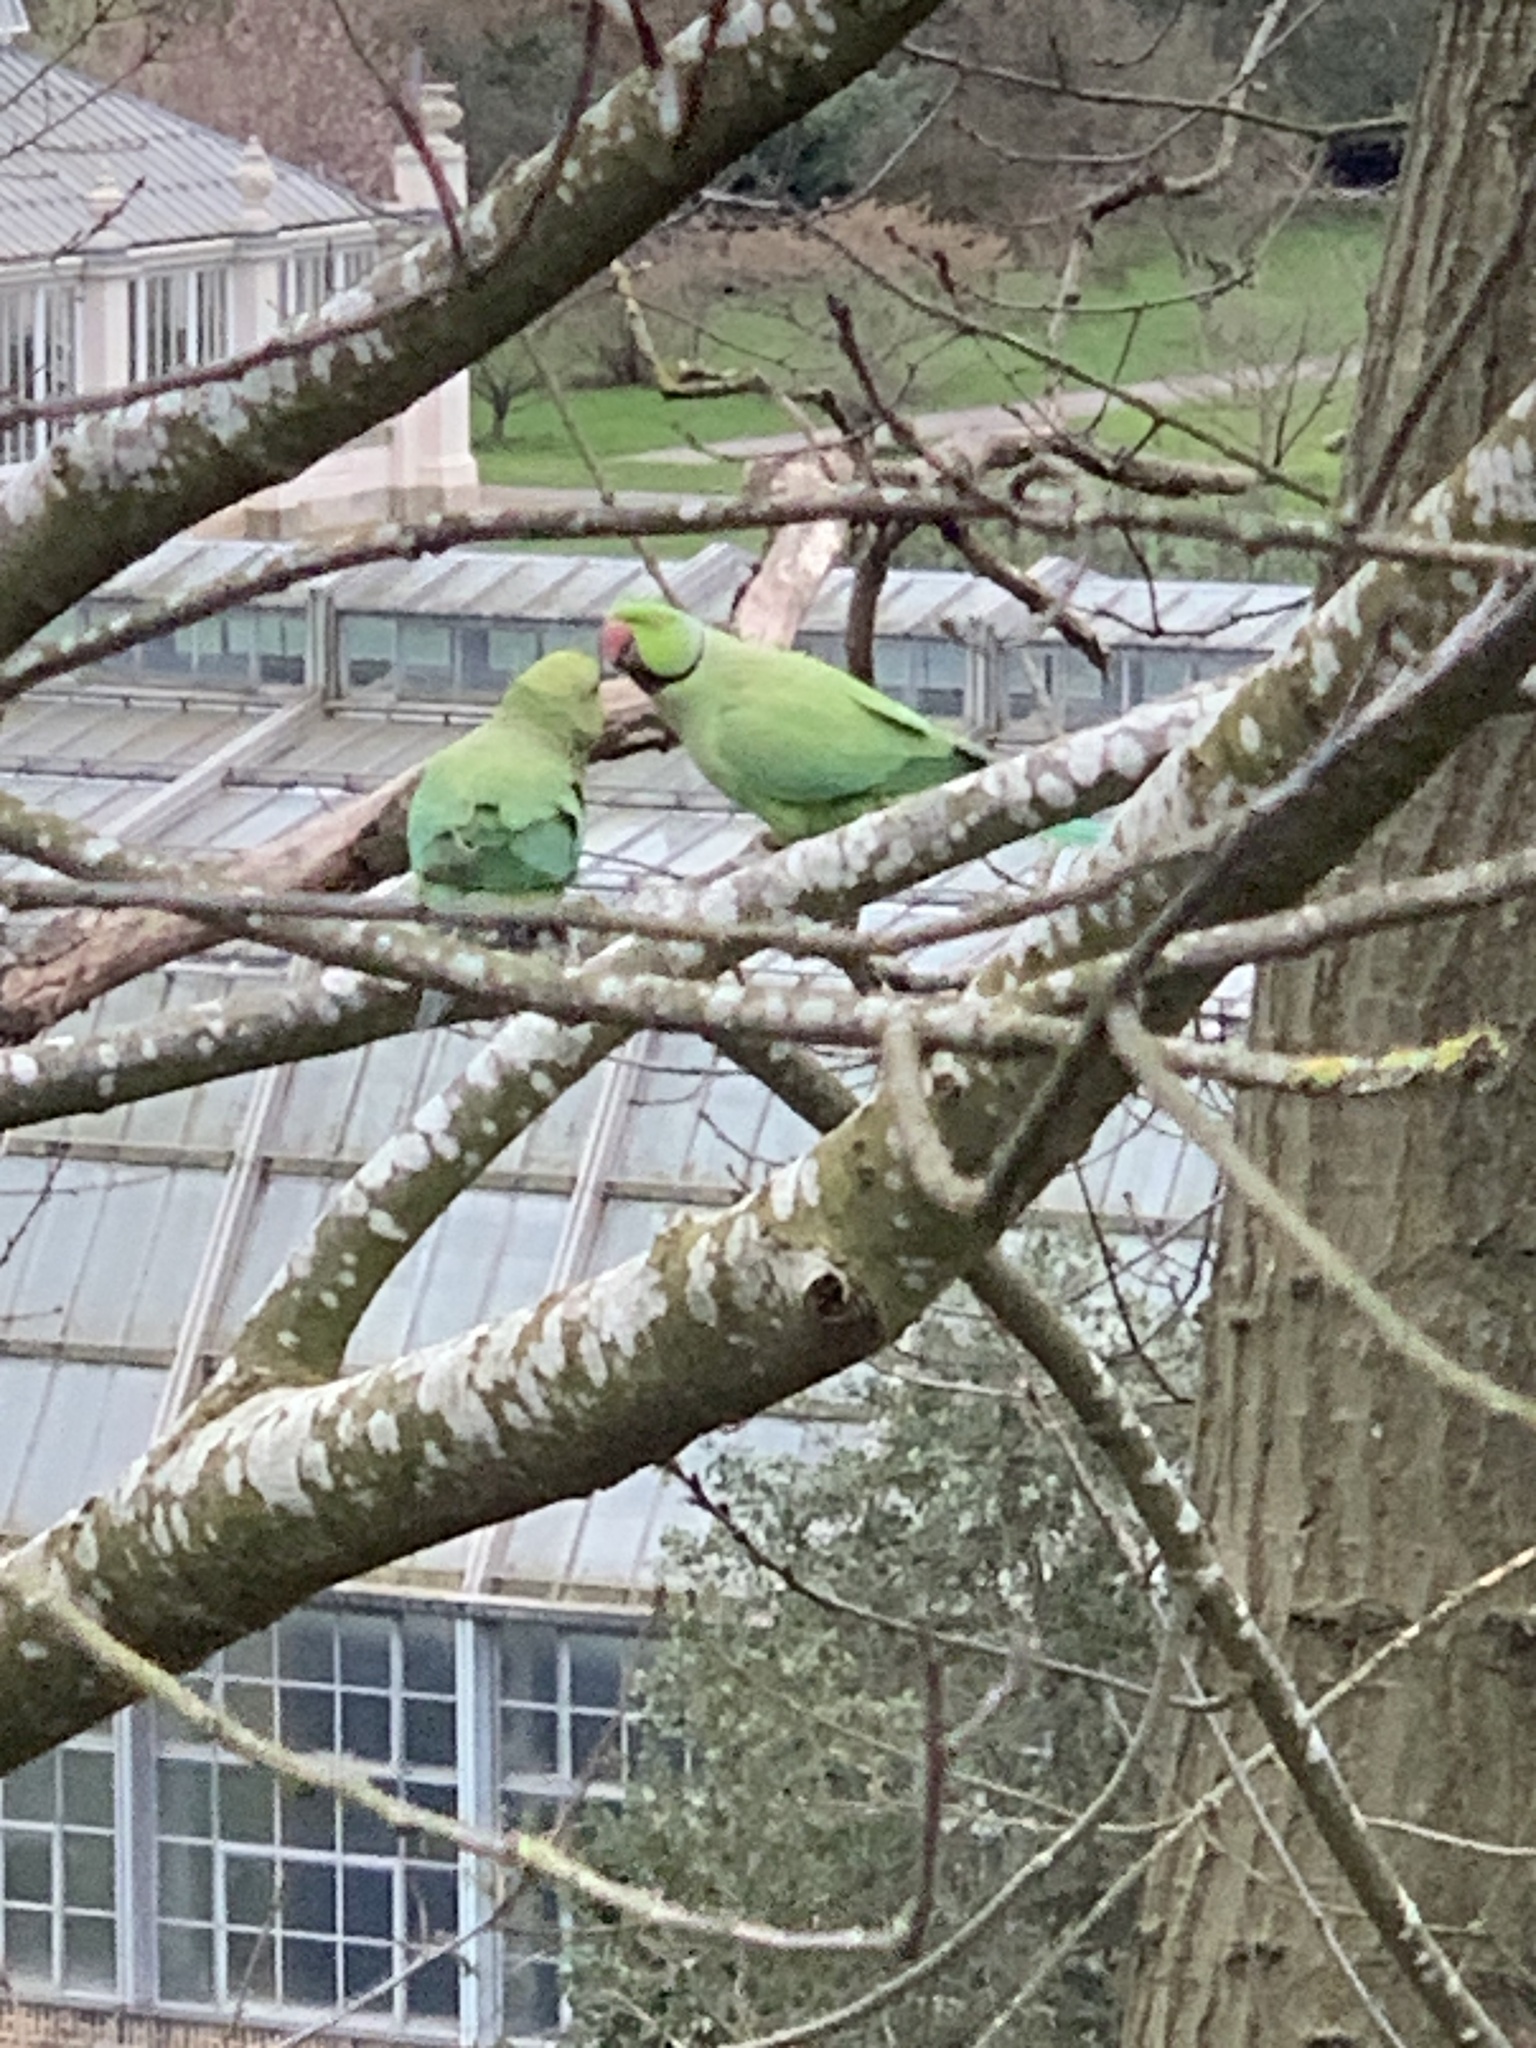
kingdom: Animalia
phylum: Chordata
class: Aves
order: Psittaciformes
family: Psittacidae
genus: Psittacula
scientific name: Psittacula krameri
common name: Rose-ringed parakeet
